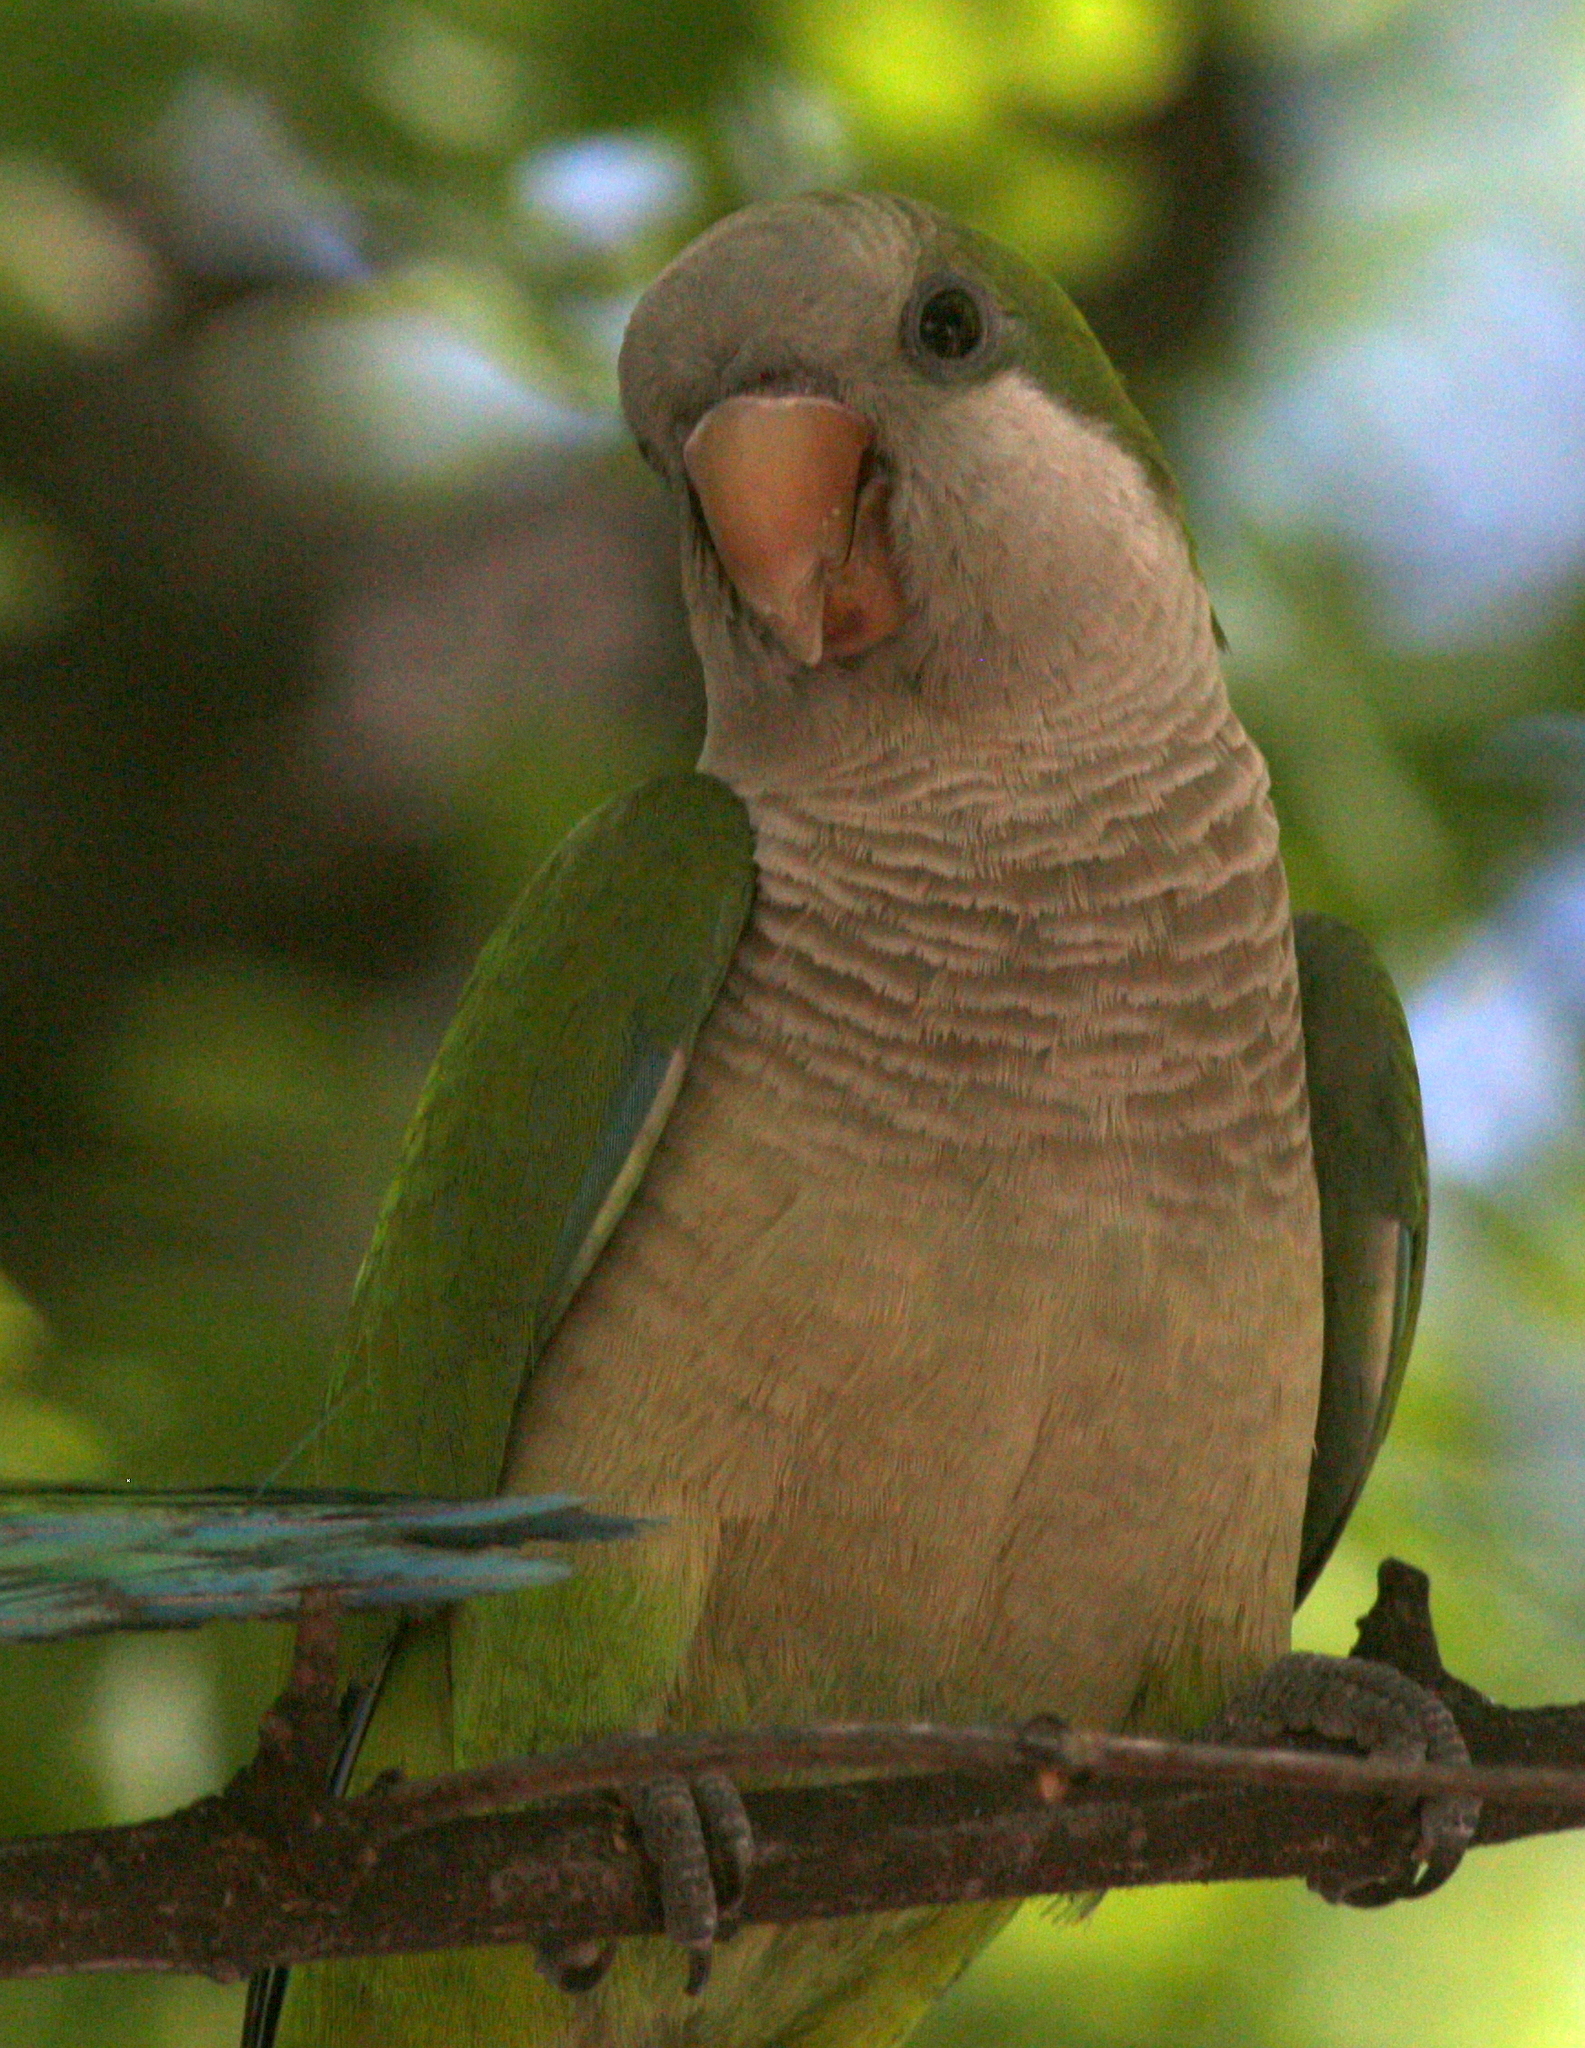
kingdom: Animalia
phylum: Chordata
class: Aves
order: Psittaciformes
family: Psittacidae
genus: Myiopsitta
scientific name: Myiopsitta monachus
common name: Monk parakeet
